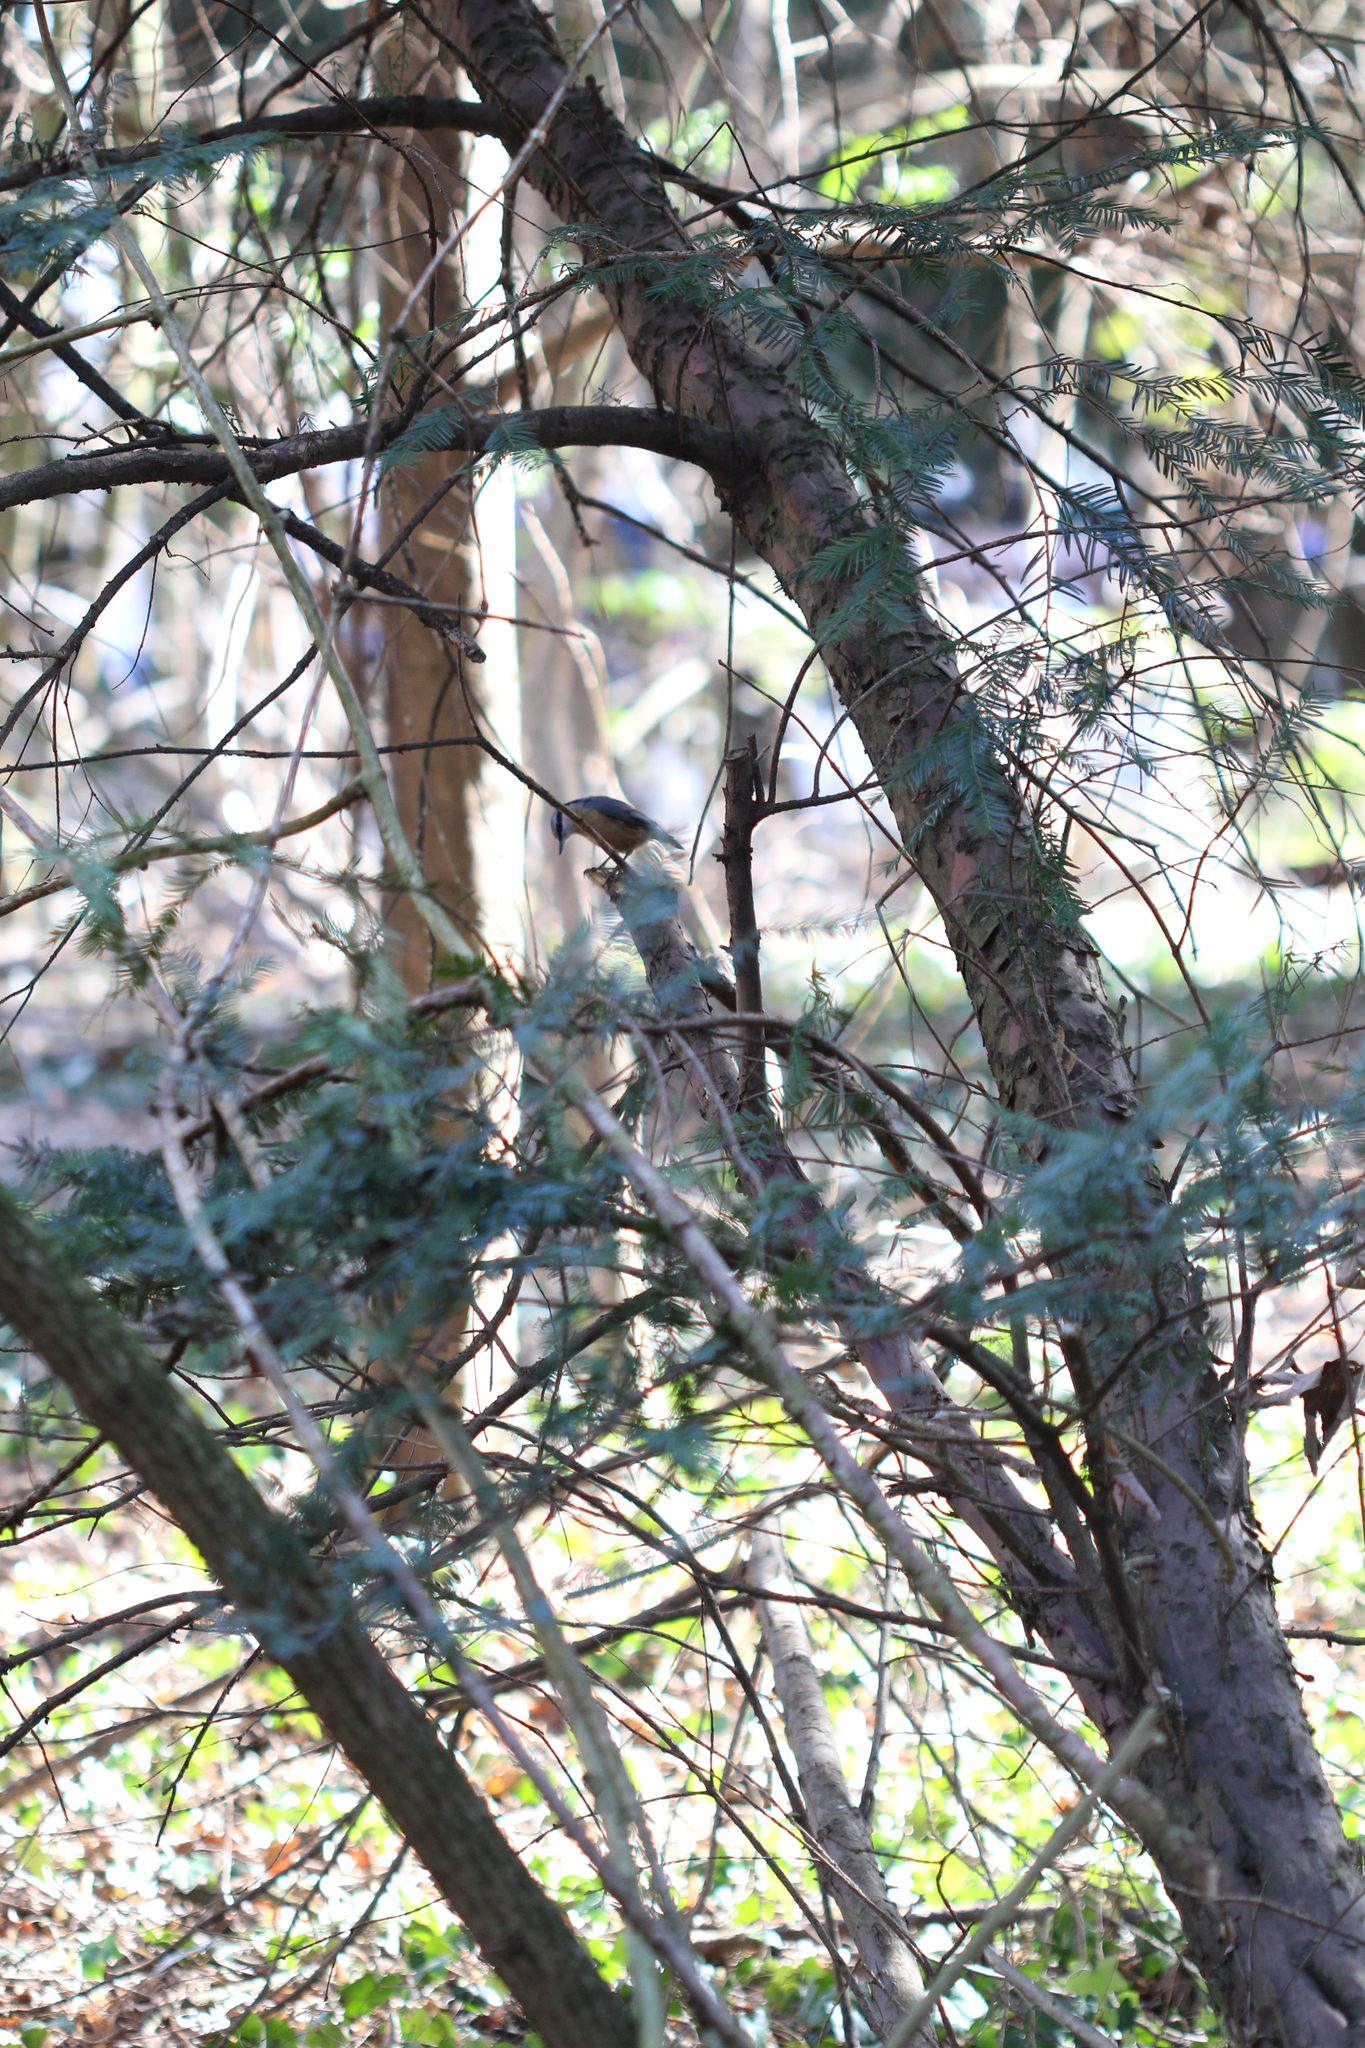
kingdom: Animalia
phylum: Chordata
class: Aves
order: Passeriformes
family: Sittidae
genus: Sitta
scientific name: Sitta europaea
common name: Eurasian nuthatch
